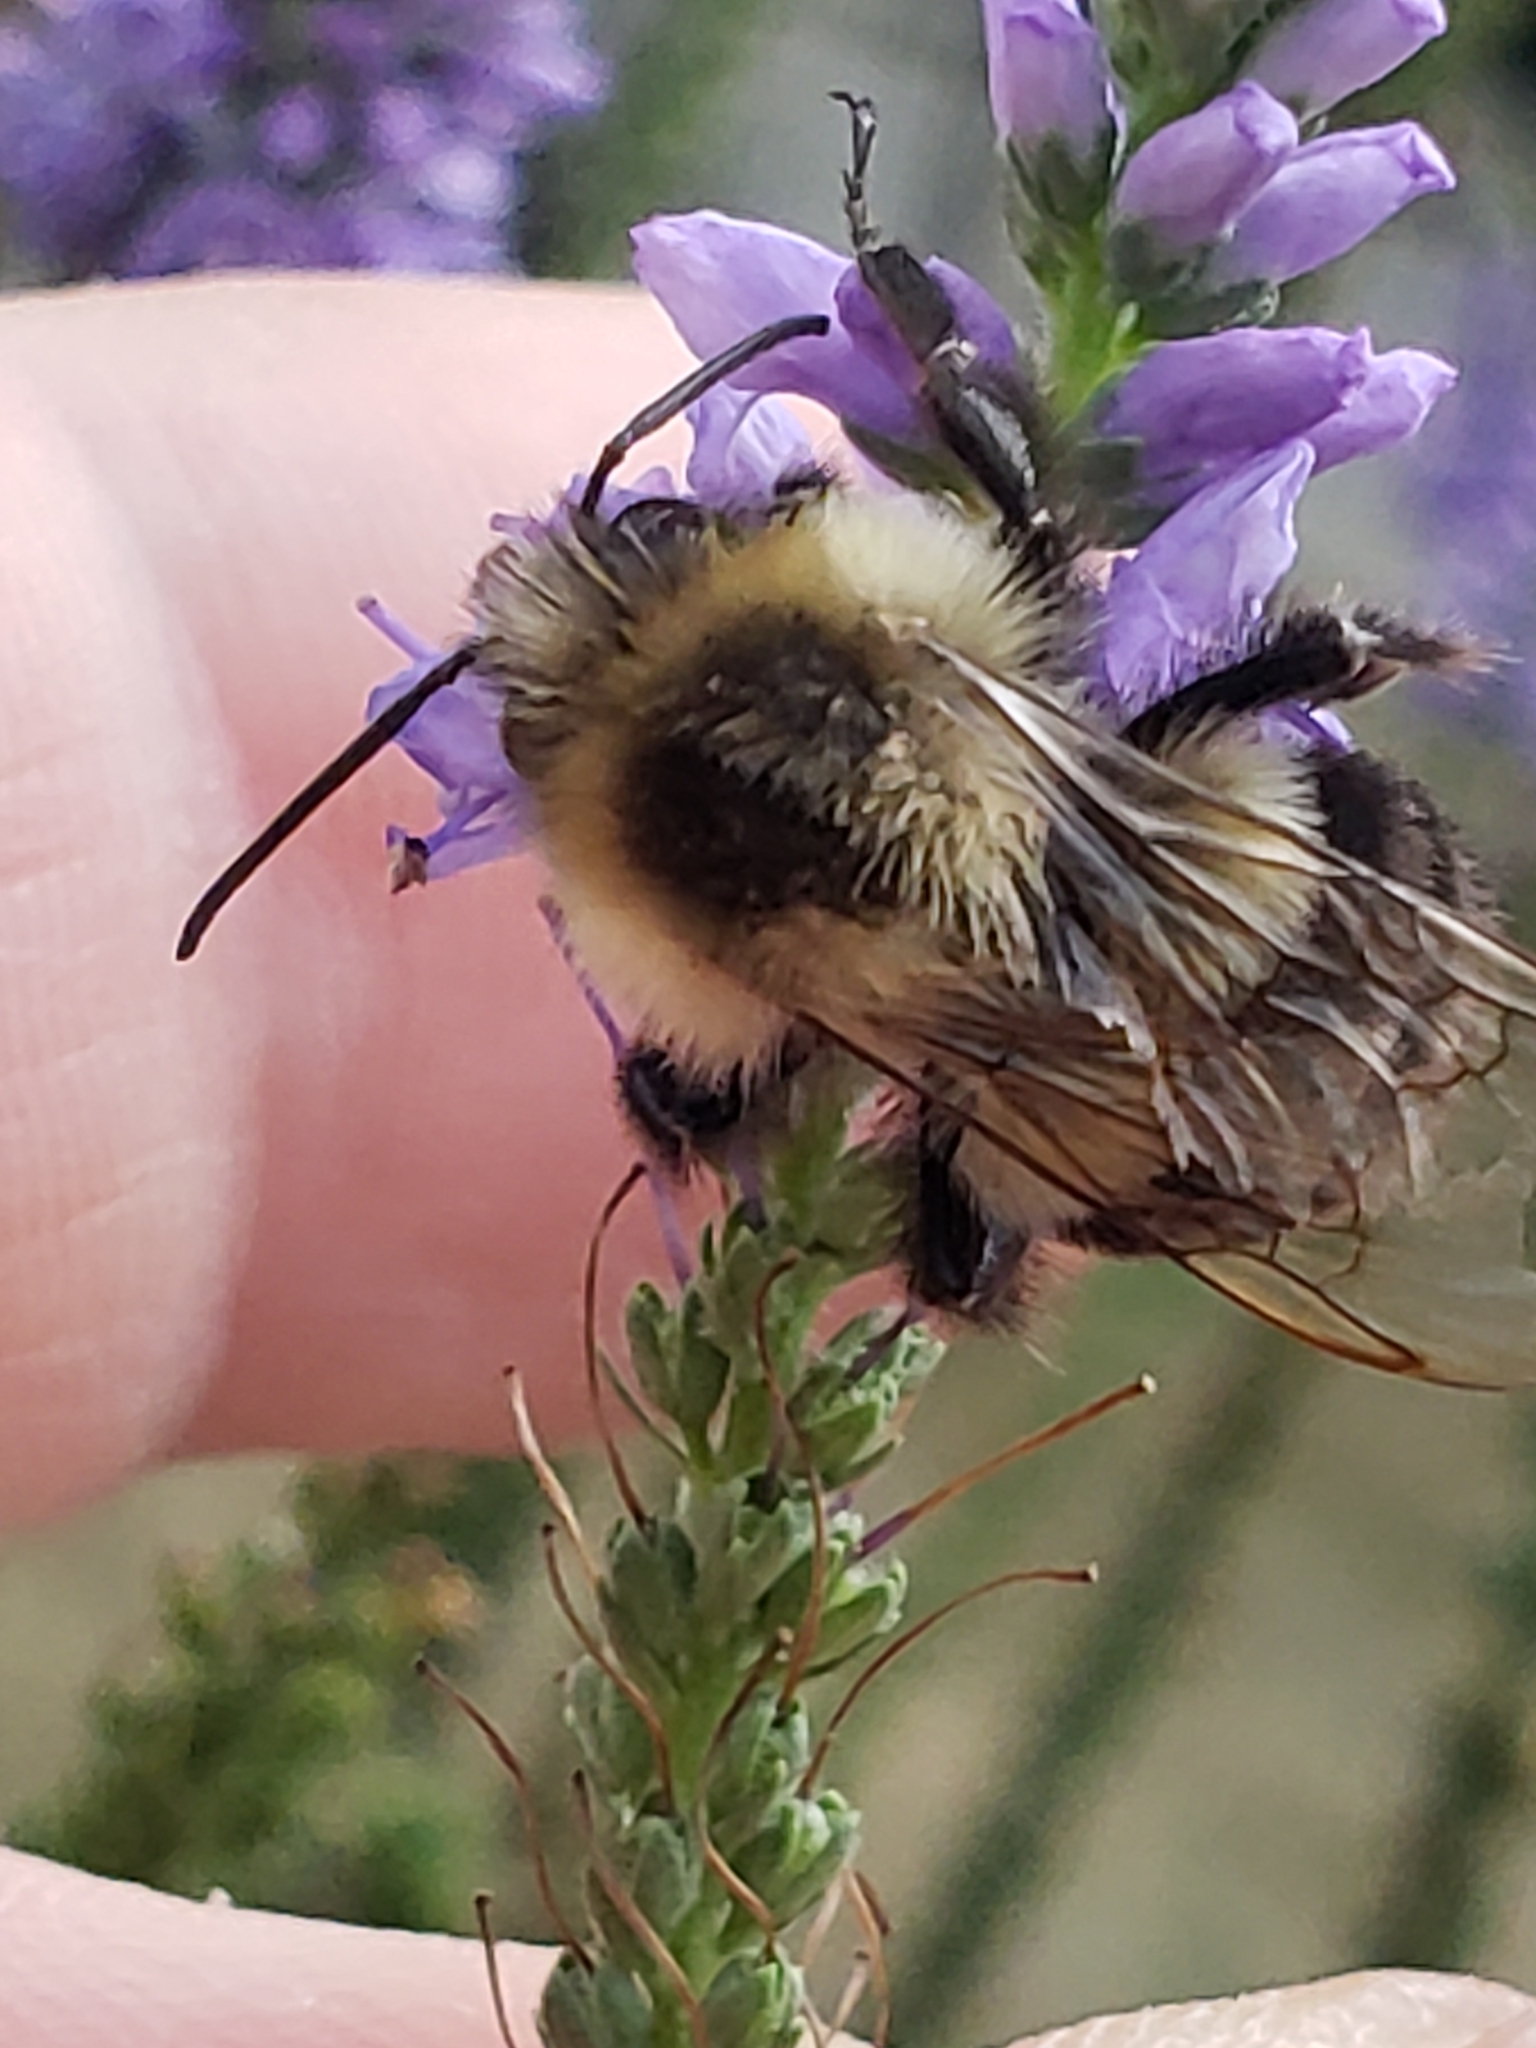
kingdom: Animalia
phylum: Arthropoda
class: Insecta
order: Hymenoptera
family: Apidae
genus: Bombus
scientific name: Bombus impatiens
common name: Common eastern bumble bee
